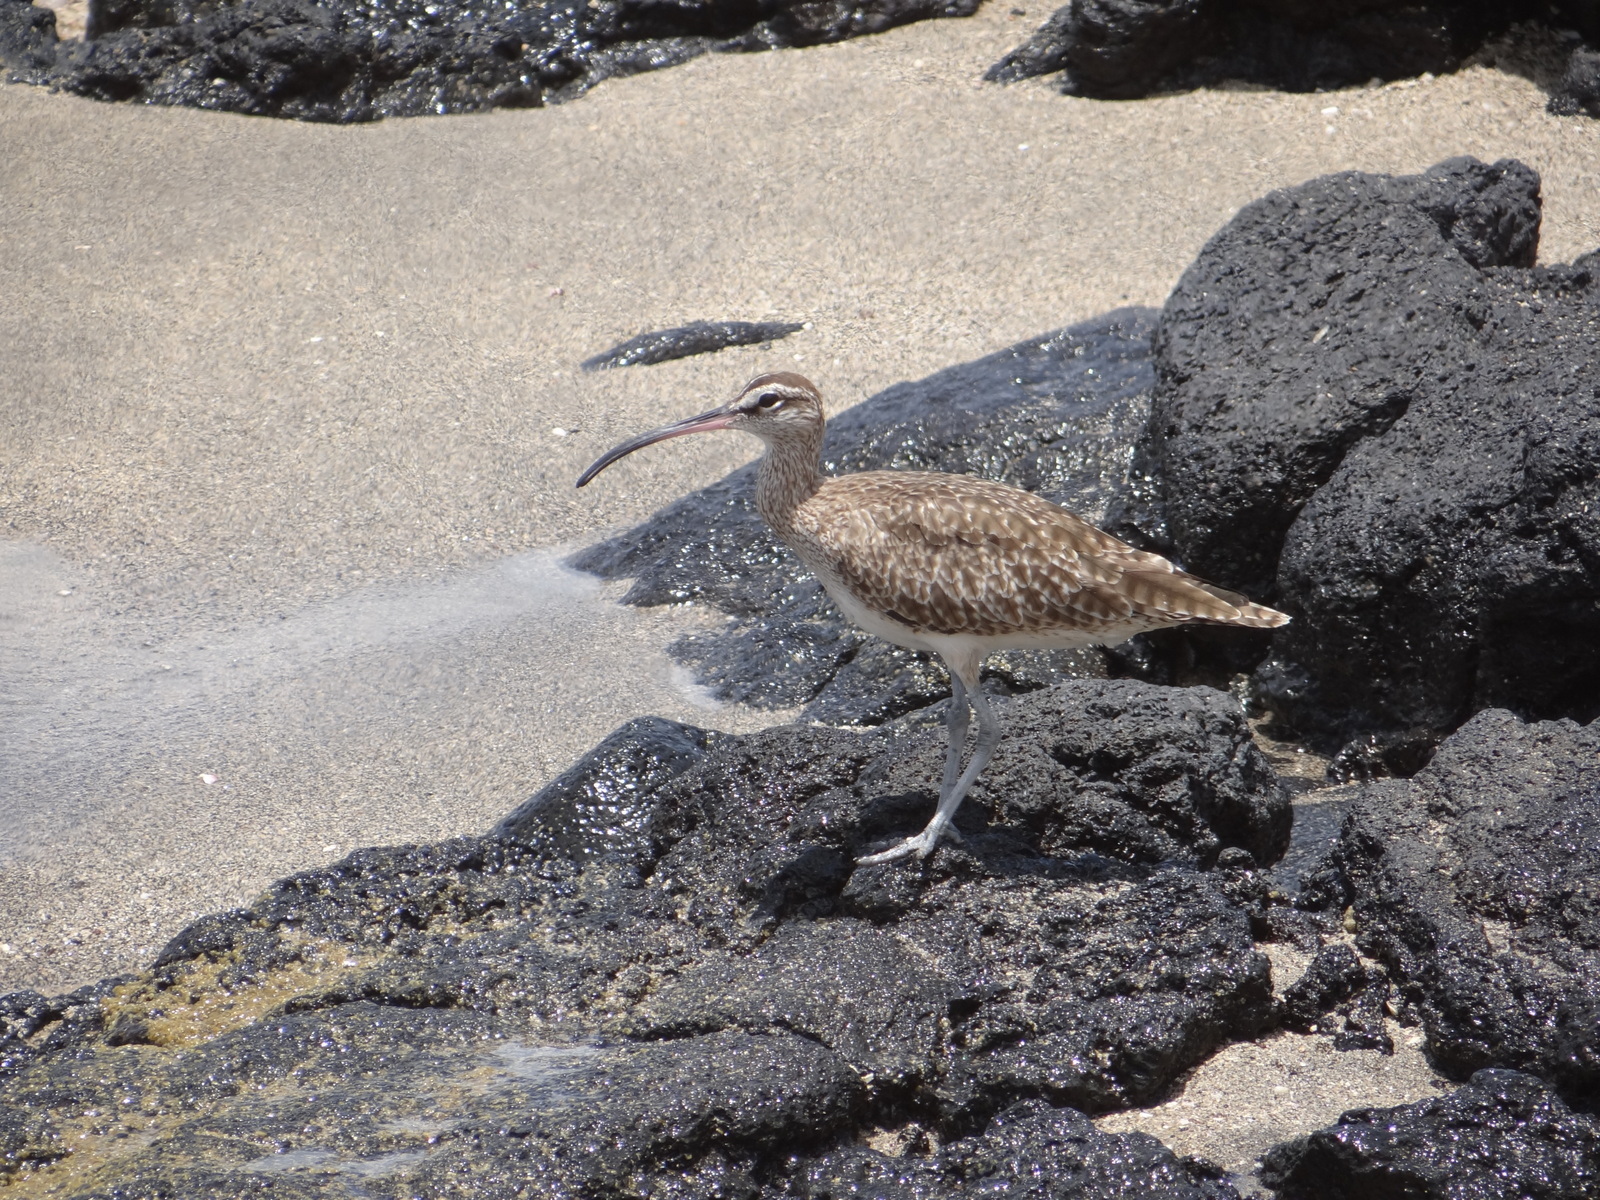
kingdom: Animalia
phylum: Chordata
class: Aves
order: Charadriiformes
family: Scolopacidae
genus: Numenius
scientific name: Numenius phaeopus
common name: Whimbrel
